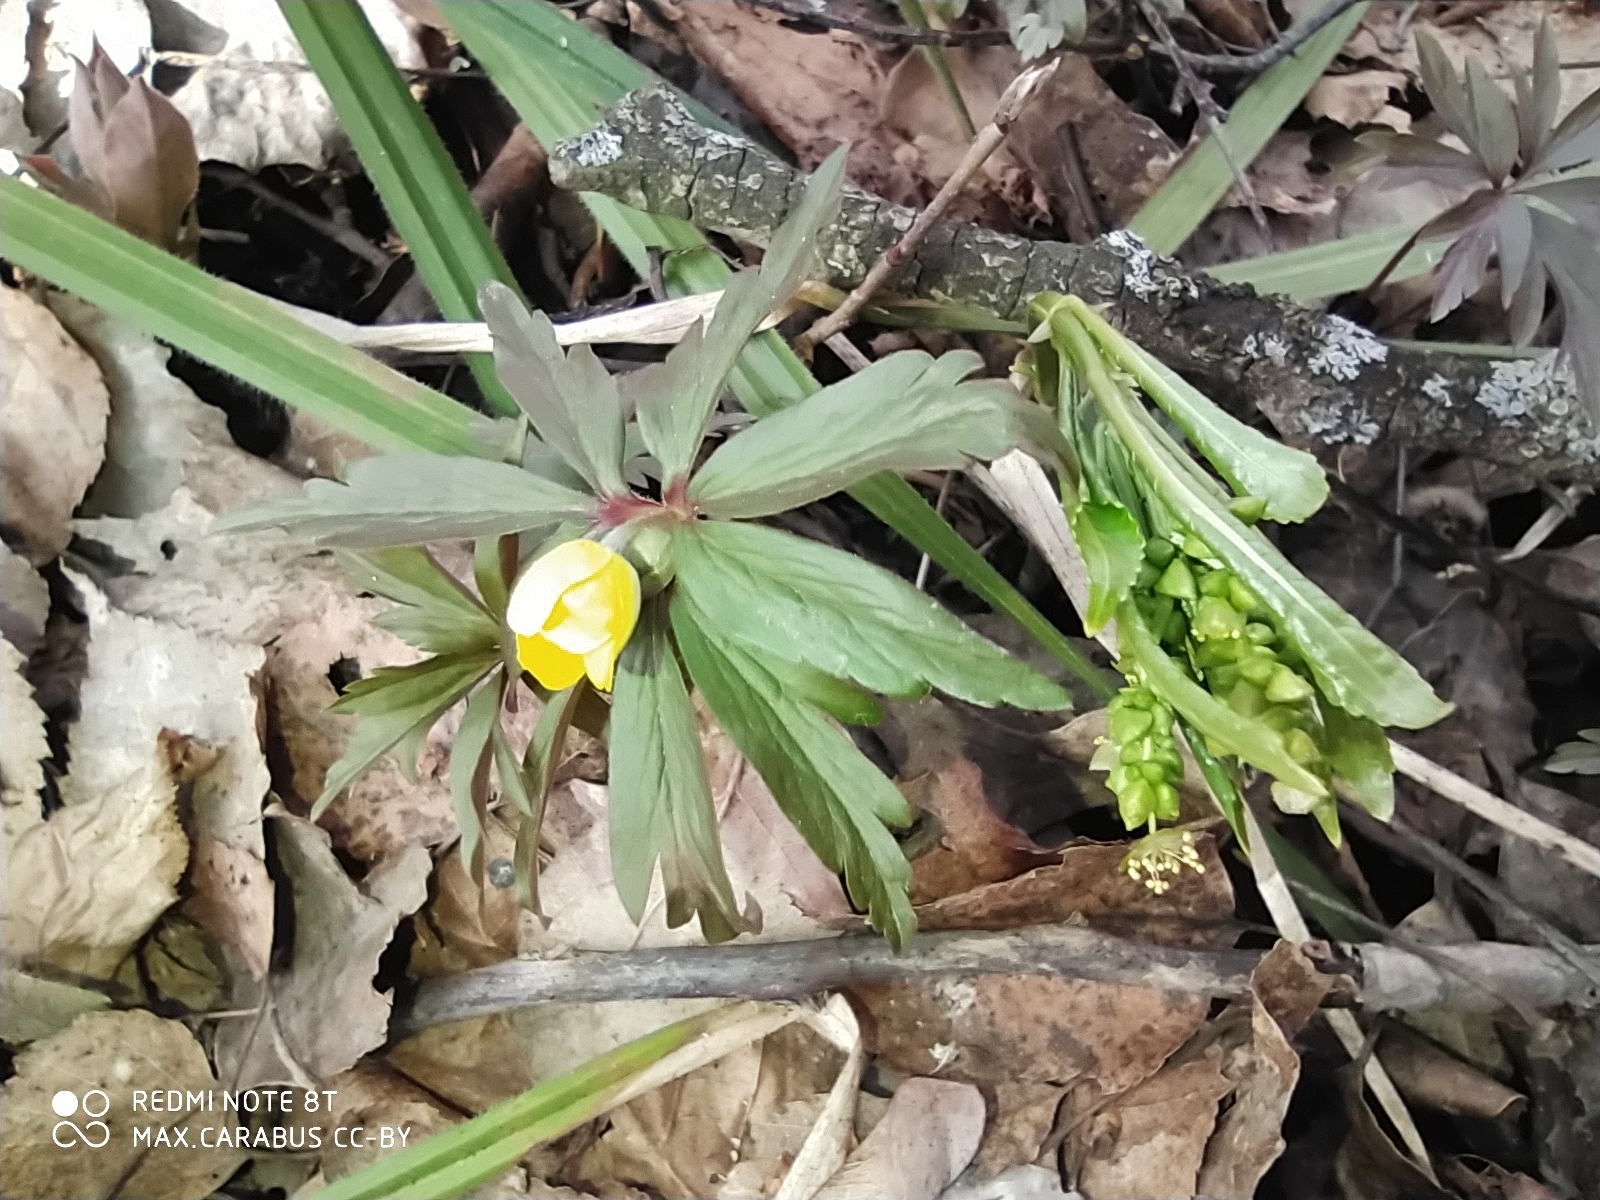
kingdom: Plantae
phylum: Tracheophyta
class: Magnoliopsida
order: Ranunculales
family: Ranunculaceae
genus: Anemone
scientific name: Anemone ranunculoides
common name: Yellow anemone
